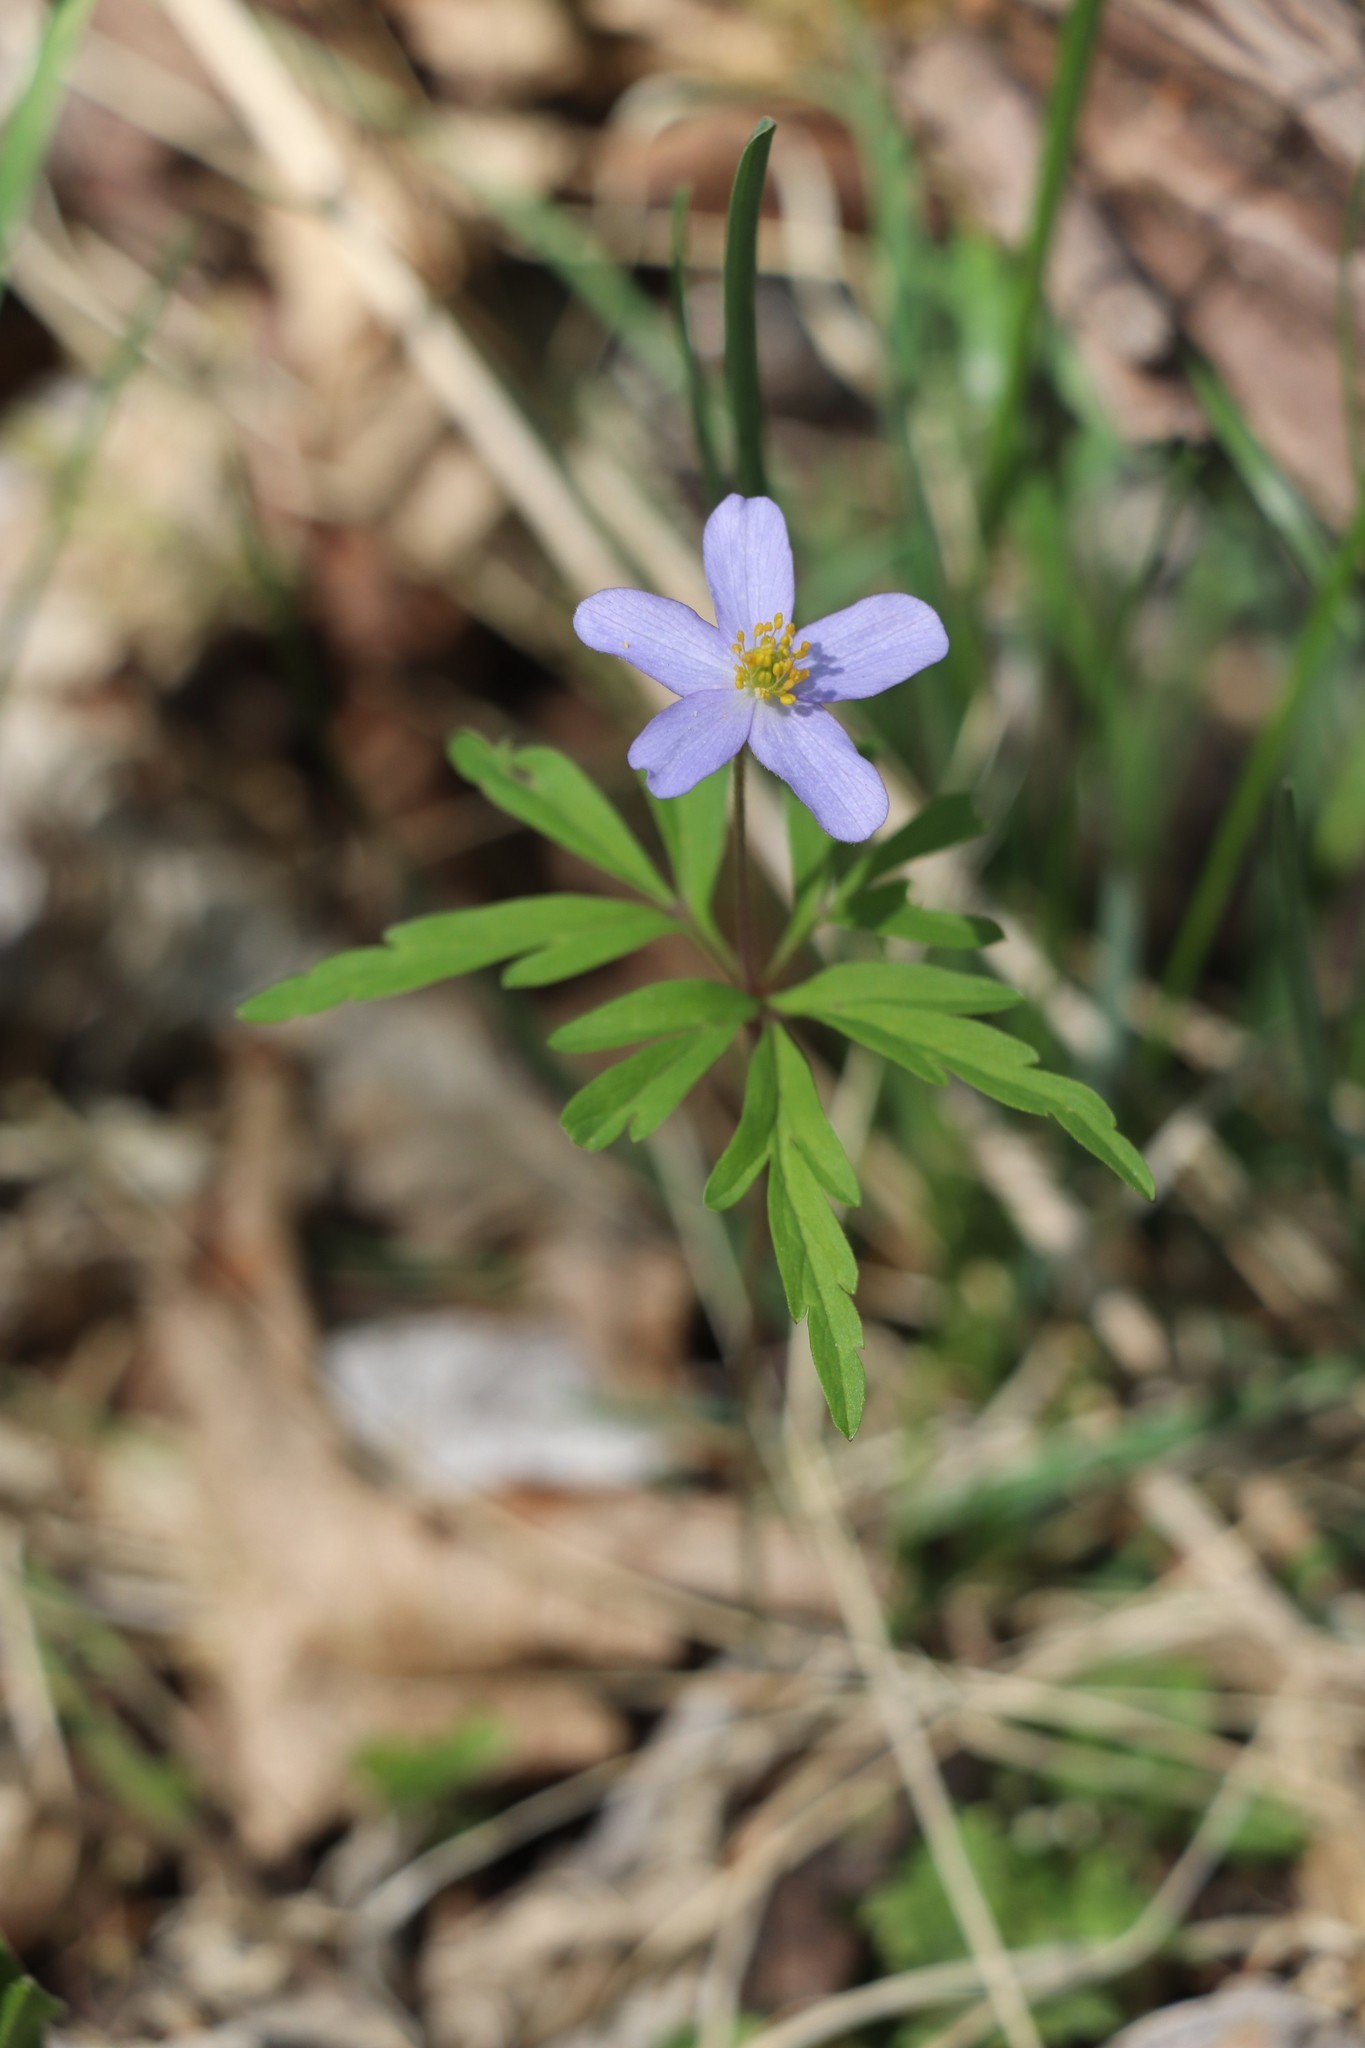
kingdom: Plantae
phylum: Tracheophyta
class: Magnoliopsida
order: Ranunculales
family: Ranunculaceae
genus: Anemone
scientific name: Anemone caerulea
